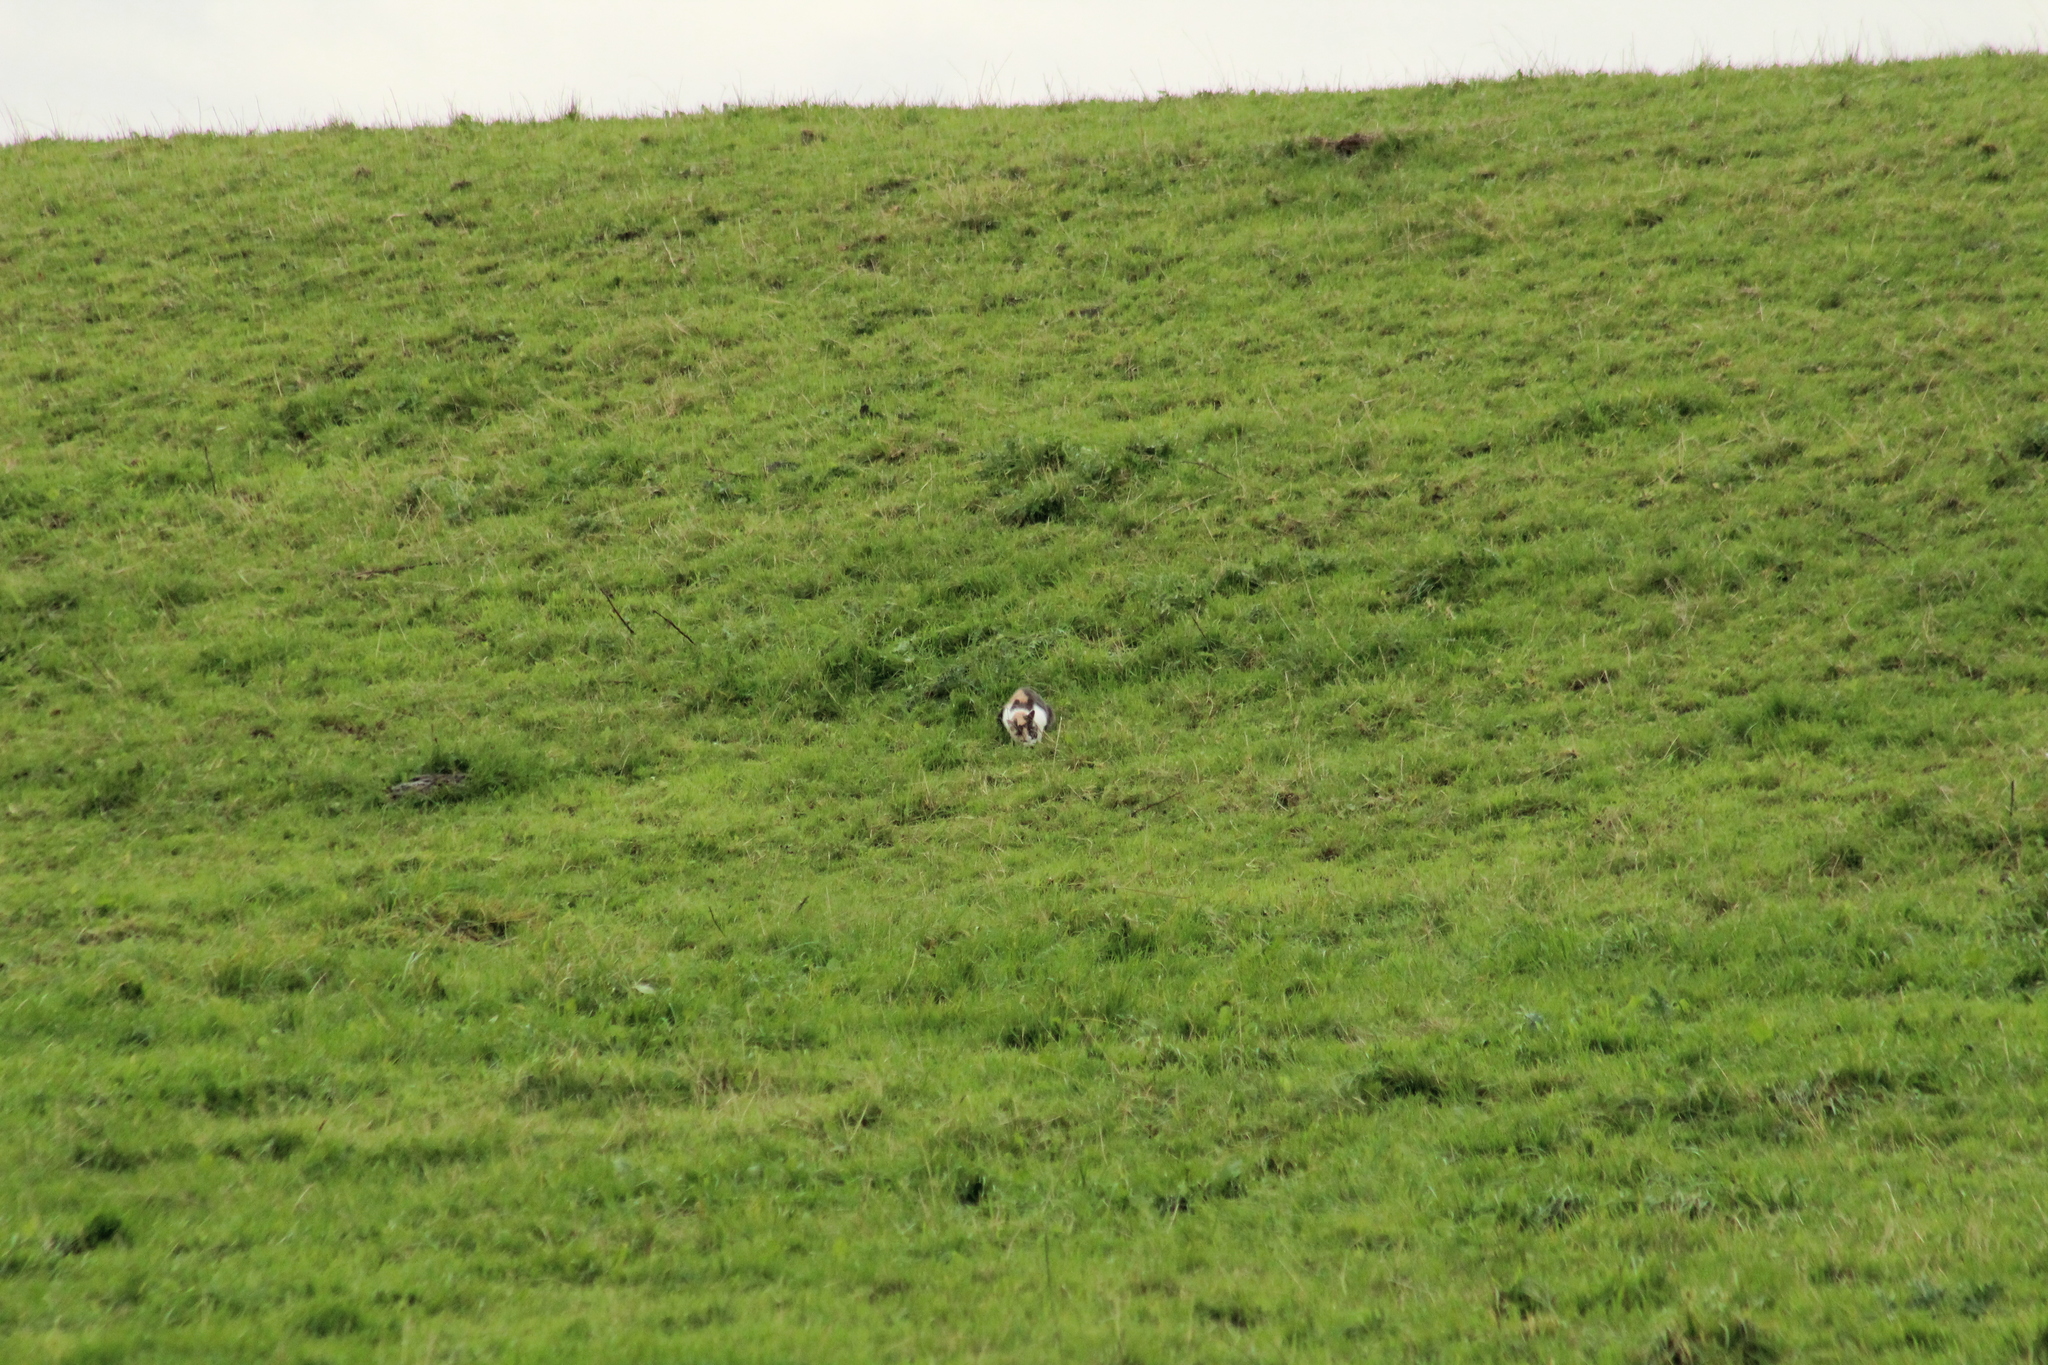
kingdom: Animalia
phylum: Chordata
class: Mammalia
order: Carnivora
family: Felidae
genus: Felis
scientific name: Felis catus
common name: Domestic cat
